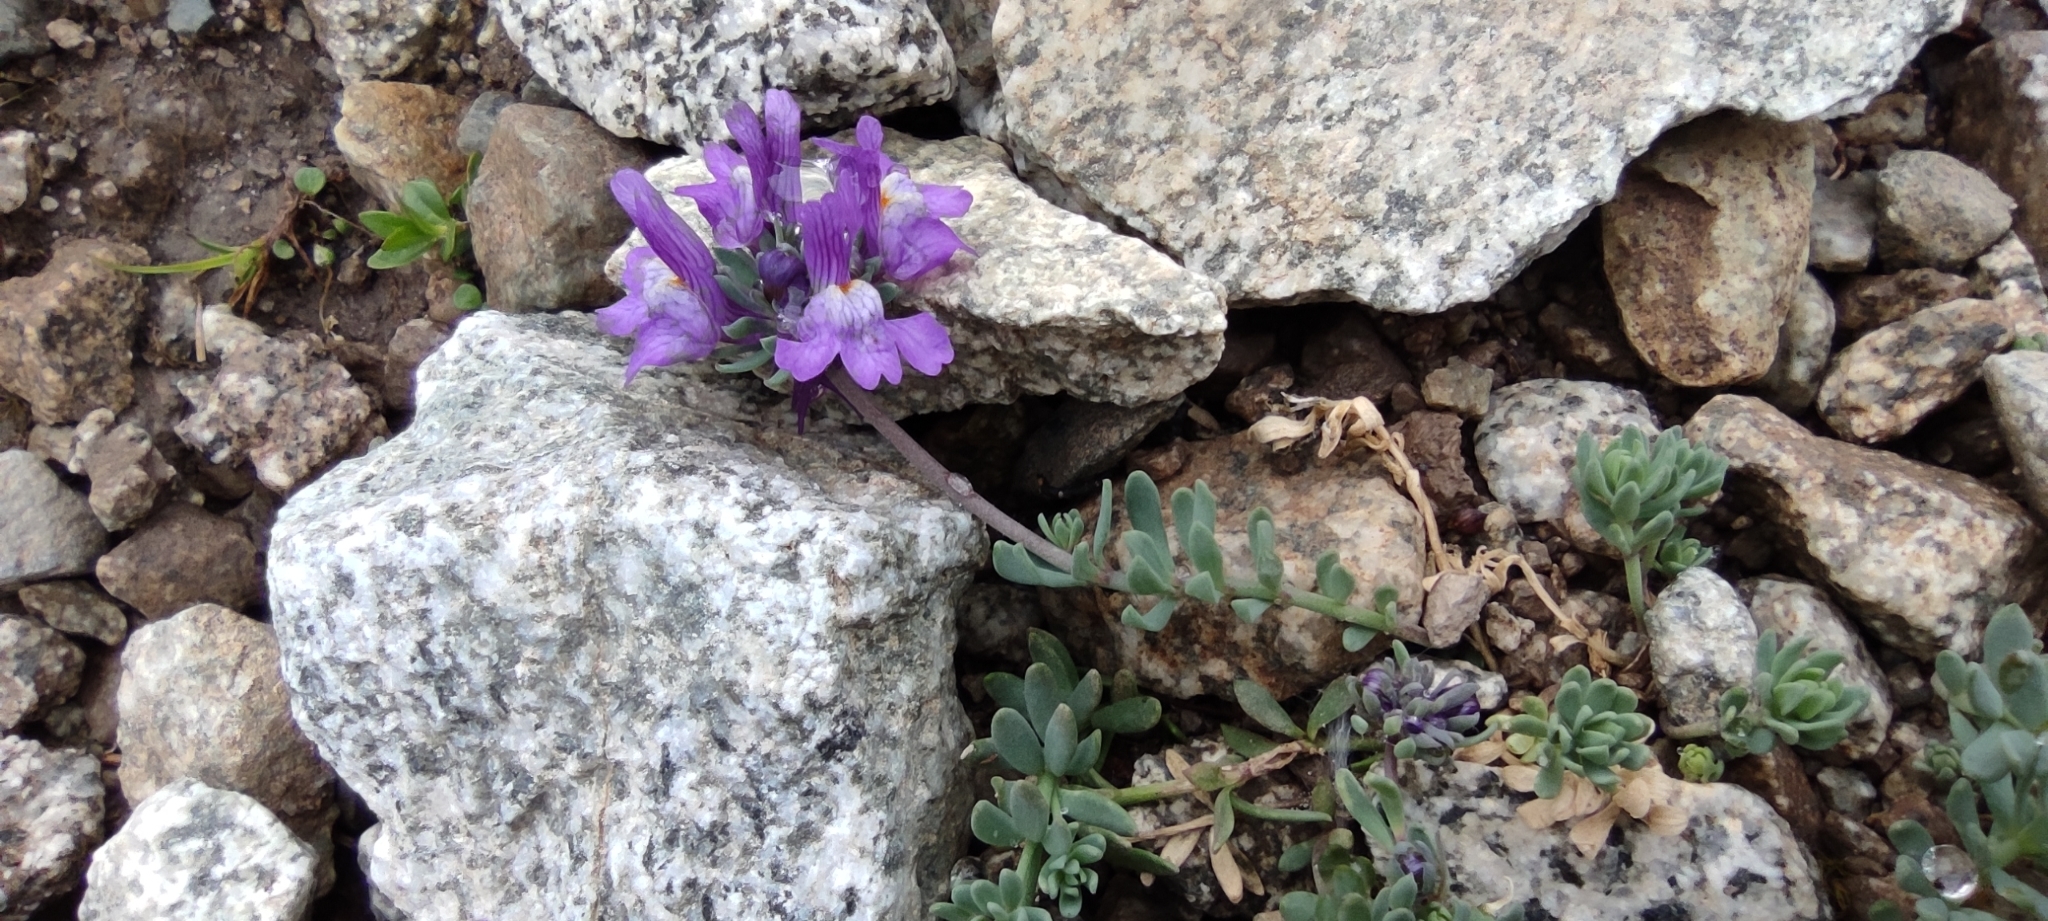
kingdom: Plantae
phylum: Tracheophyta
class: Magnoliopsida
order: Lamiales
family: Plantaginaceae
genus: Linaria
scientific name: Linaria alpina
